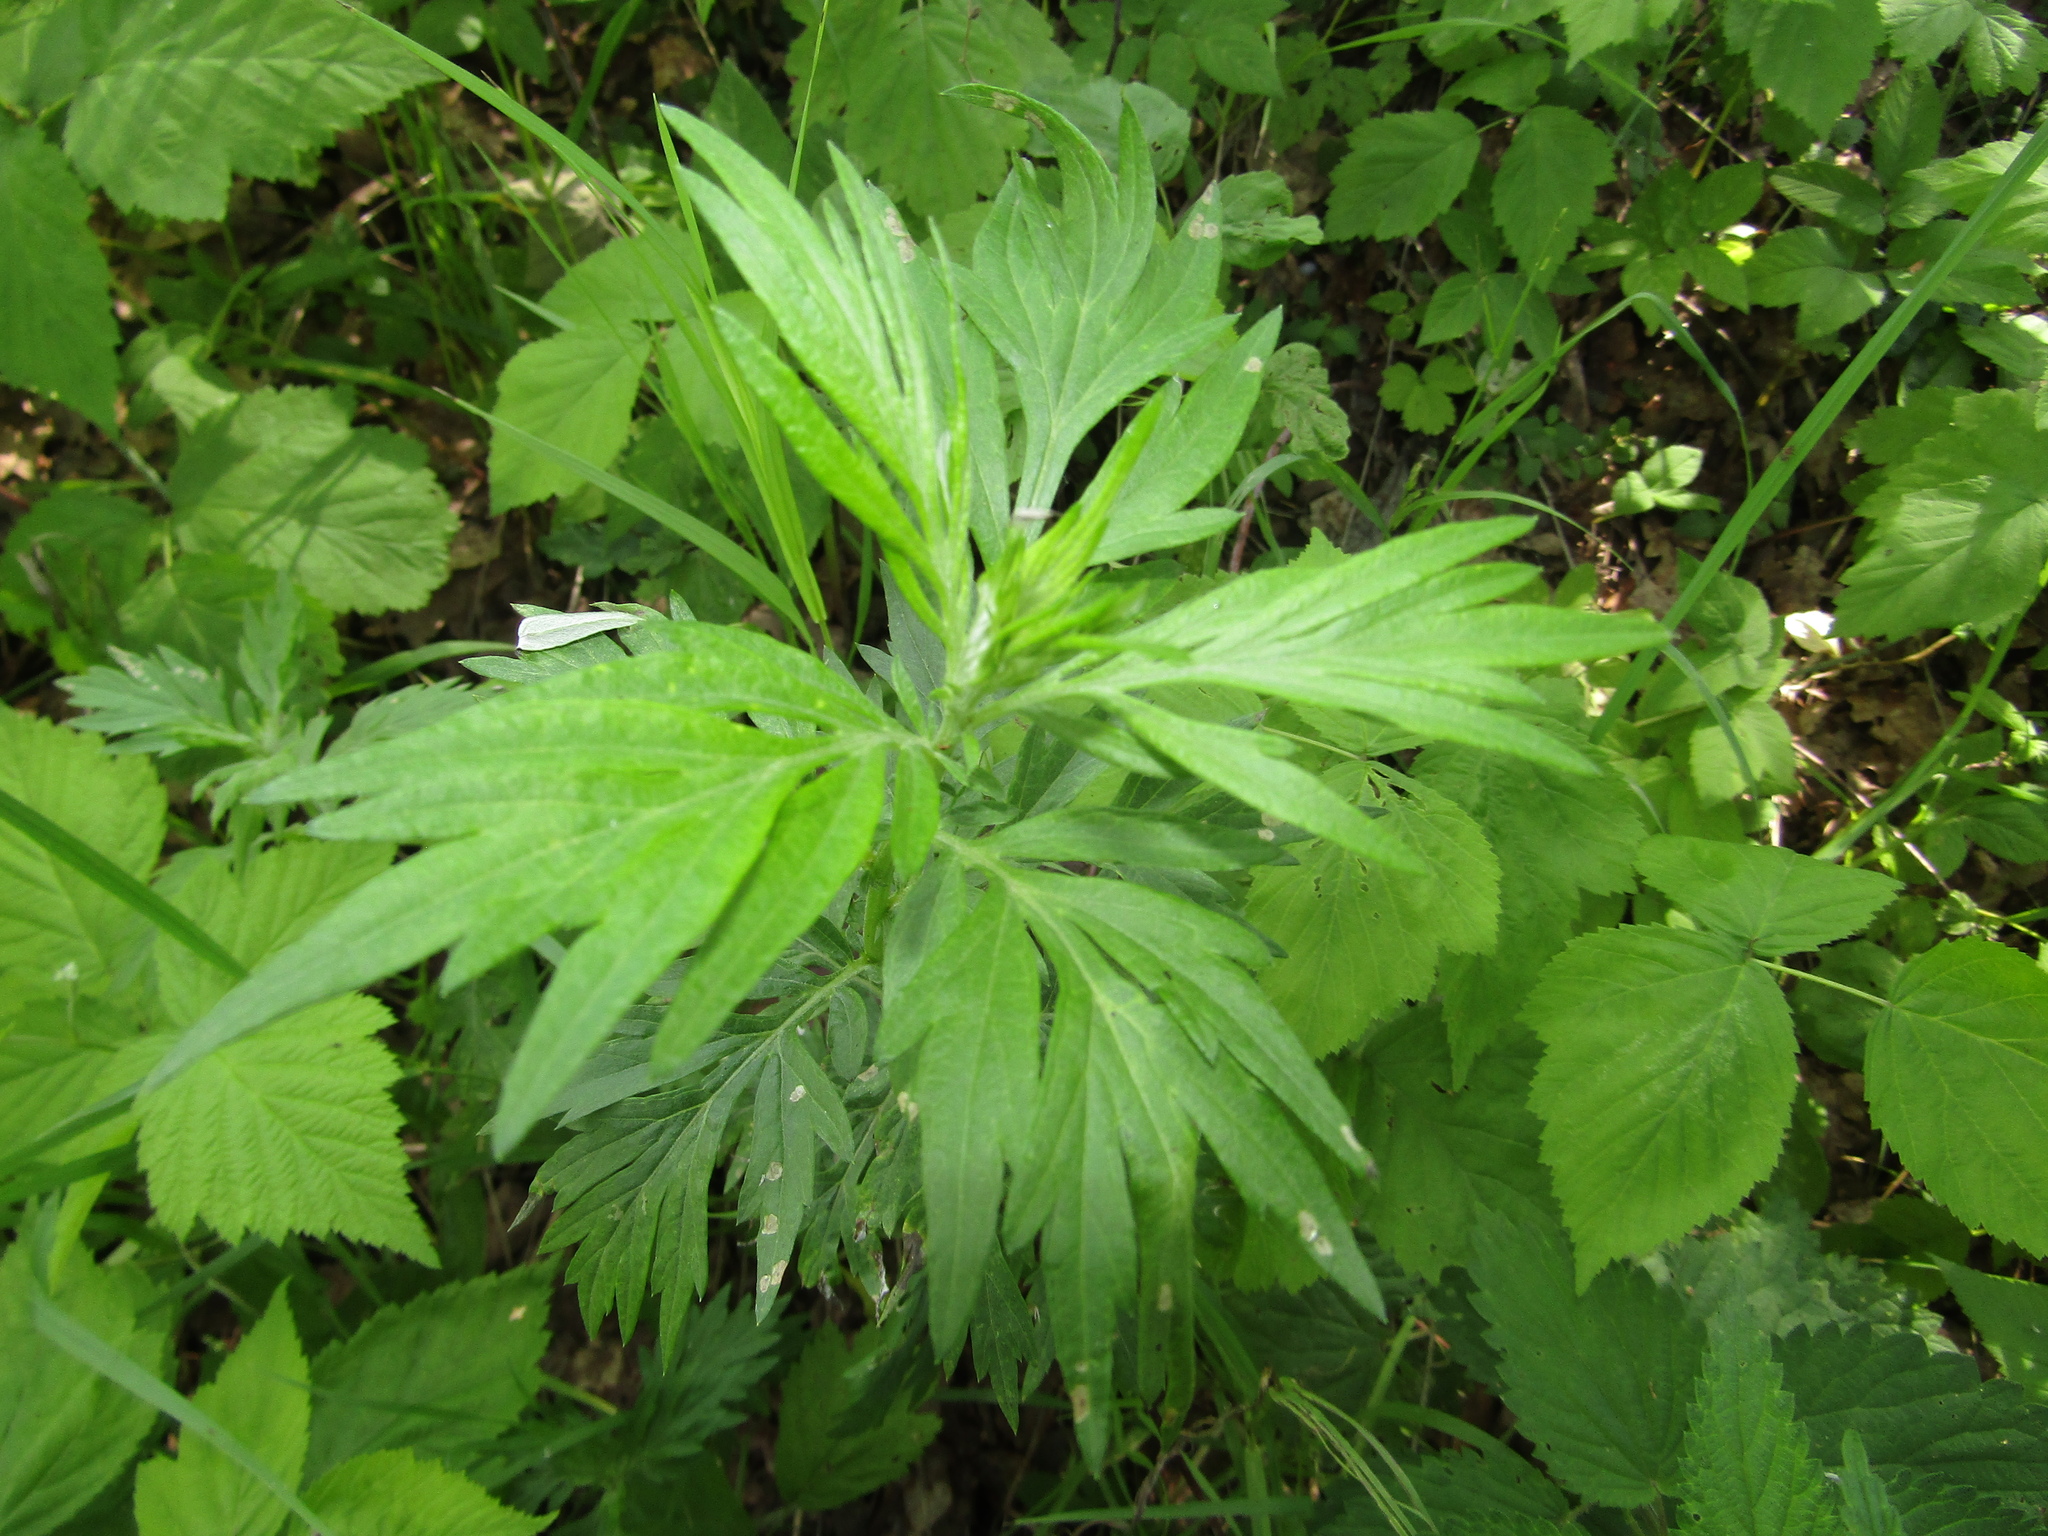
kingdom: Plantae
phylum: Tracheophyta
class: Magnoliopsida
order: Asterales
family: Asteraceae
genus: Artemisia
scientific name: Artemisia vulgaris
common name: Mugwort
